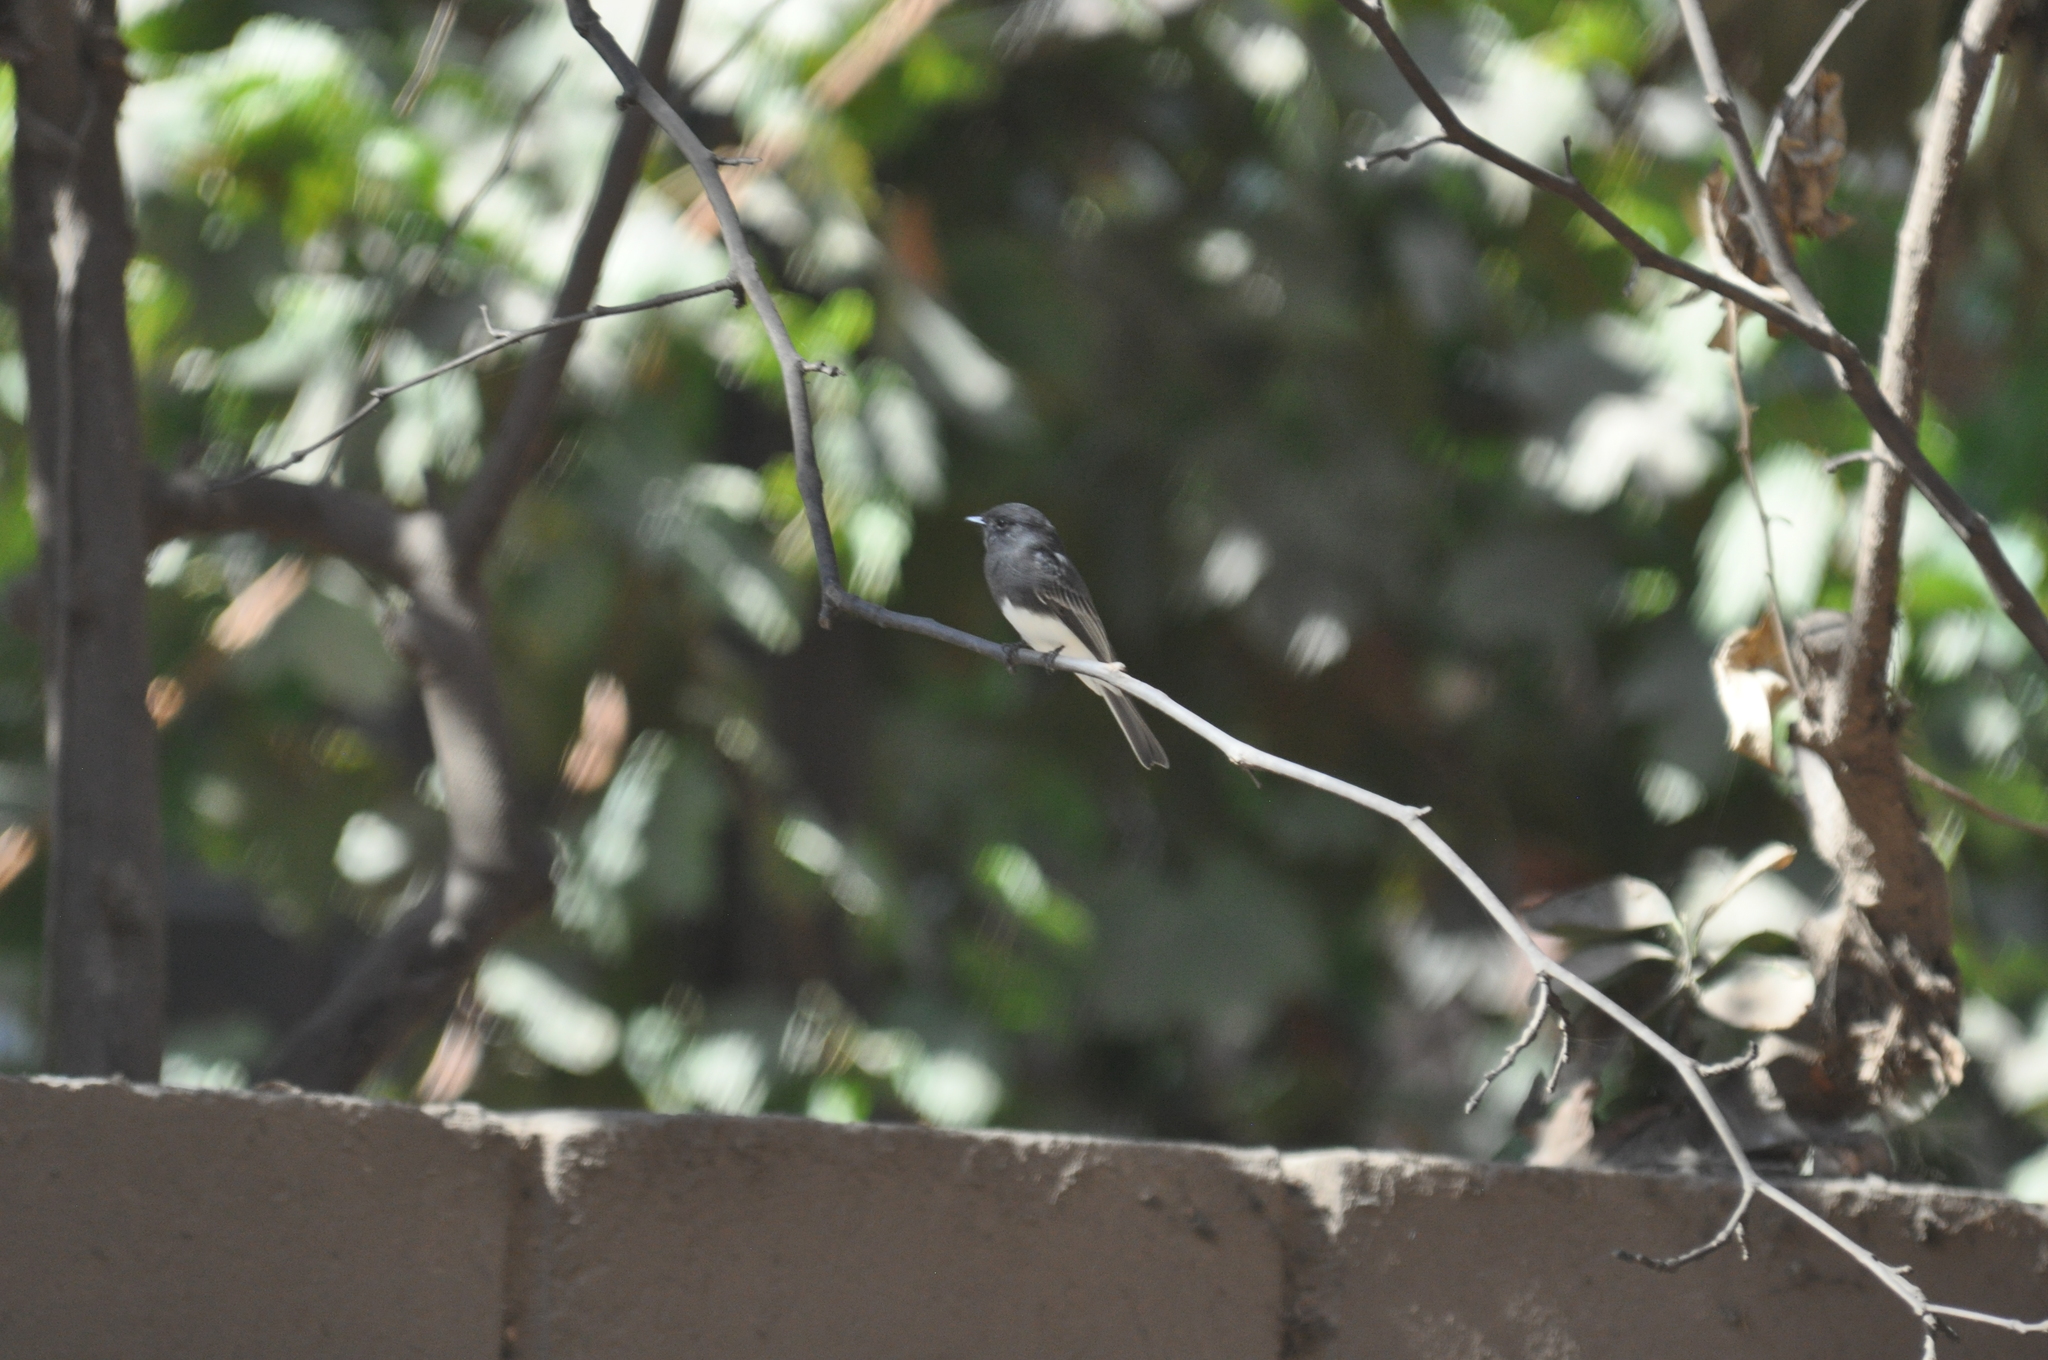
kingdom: Animalia
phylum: Chordata
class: Aves
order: Passeriformes
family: Tyrannidae
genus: Sayornis
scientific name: Sayornis nigricans
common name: Black phoebe
